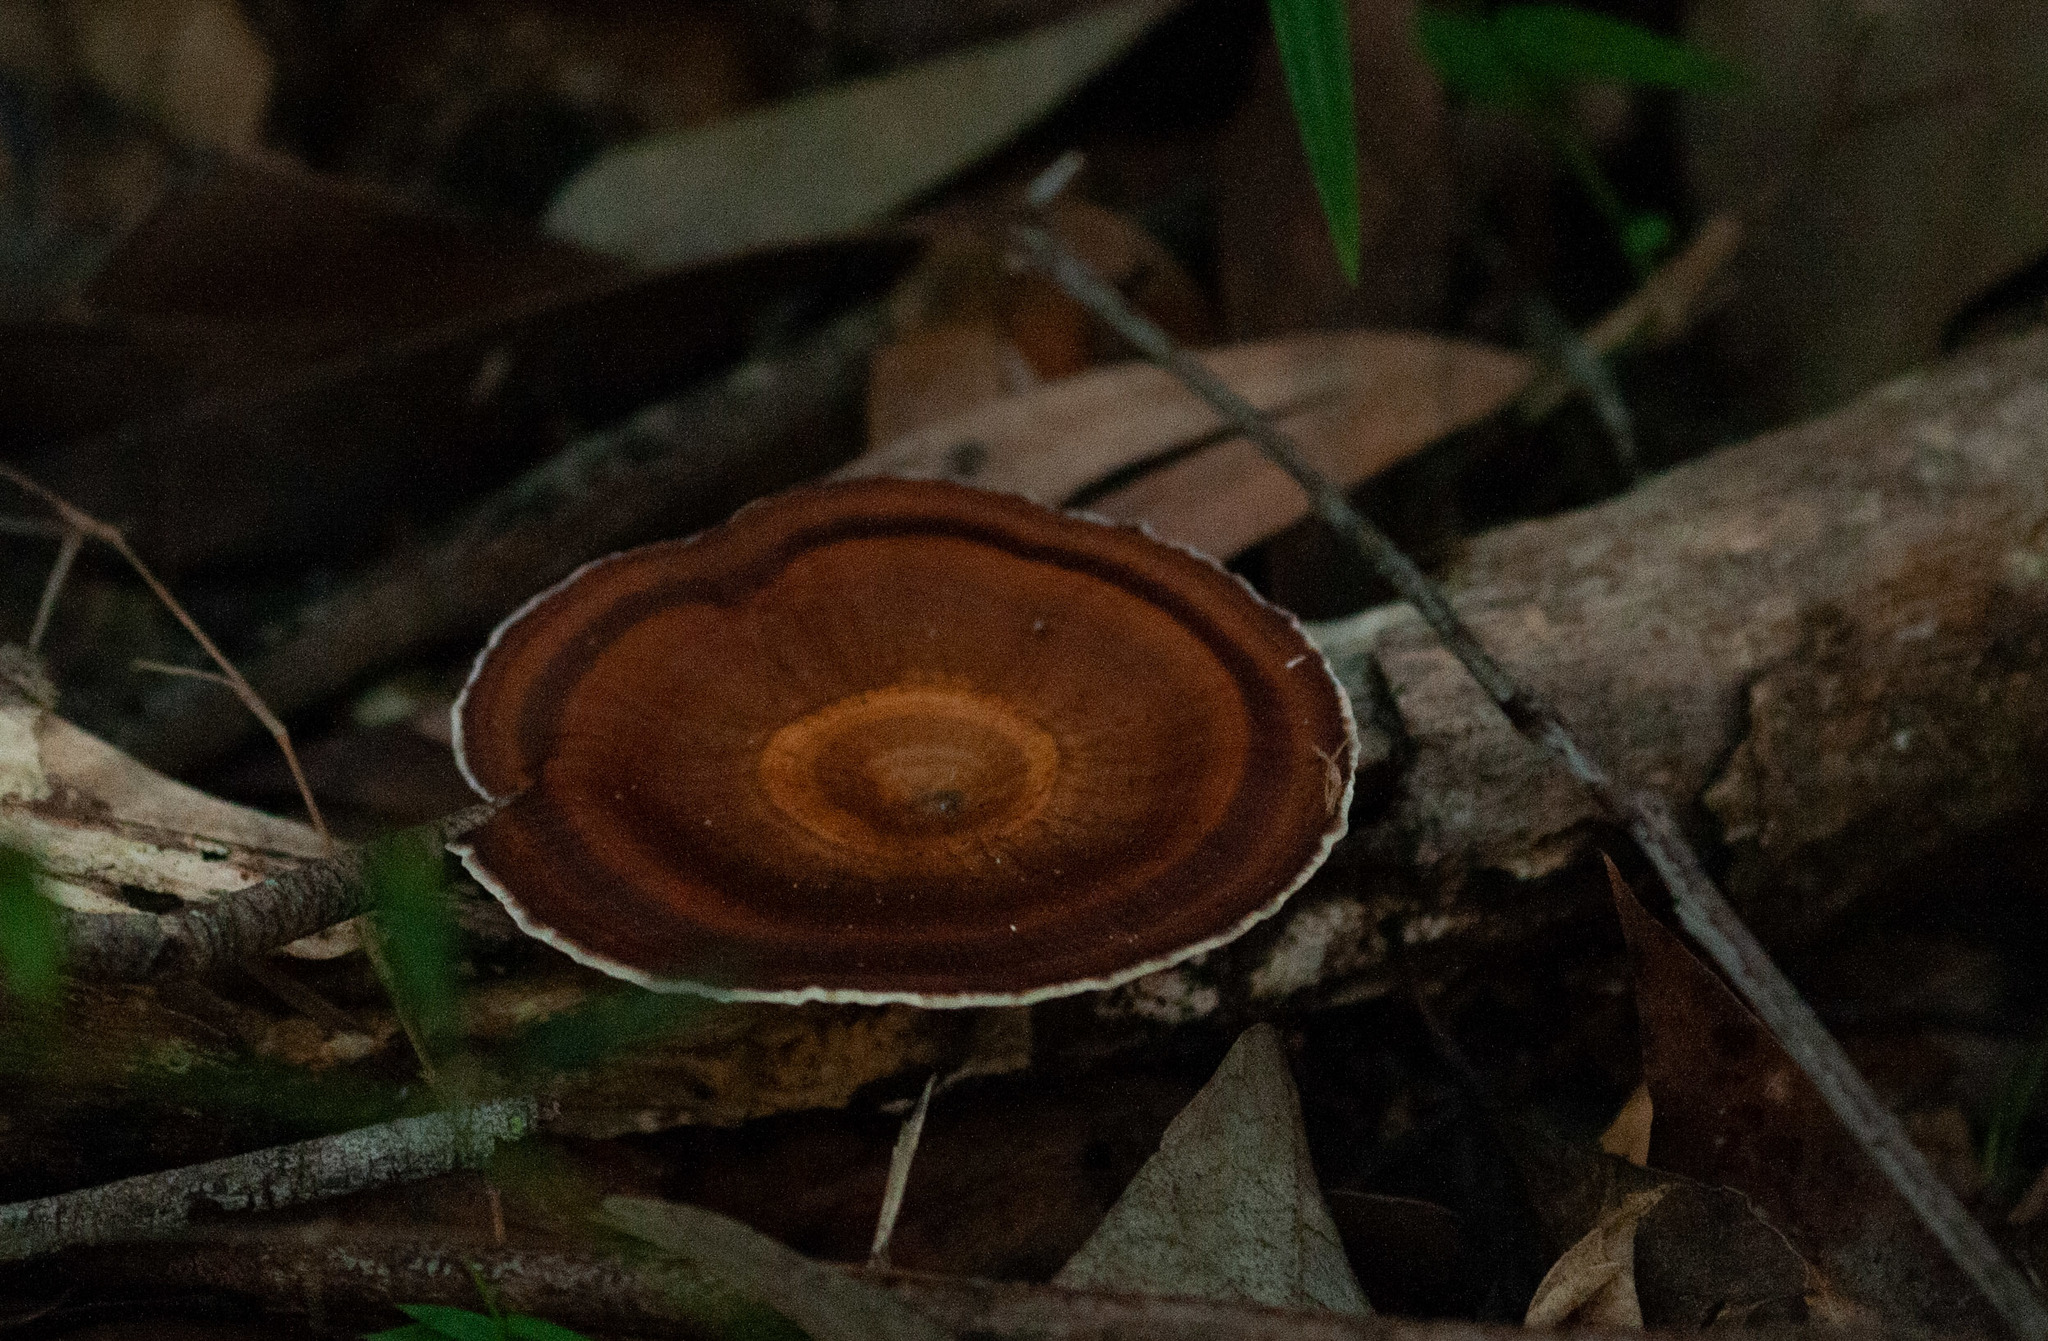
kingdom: Fungi
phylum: Basidiomycota
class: Agaricomycetes
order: Polyporales
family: Polyporaceae
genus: Microporus
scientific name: Microporus xanthopus
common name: Yellow-stemmed micropore
